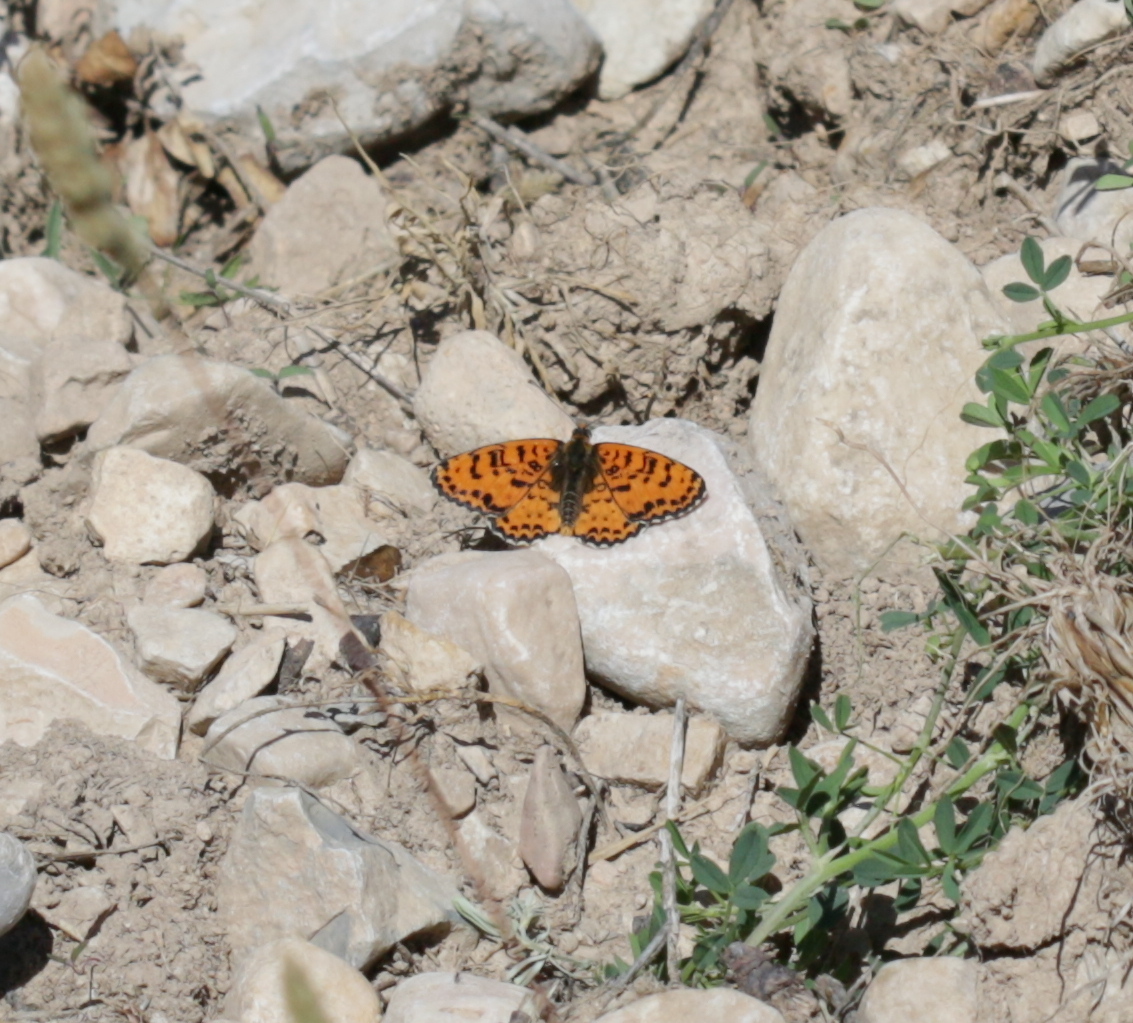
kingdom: Animalia
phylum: Arthropoda
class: Insecta
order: Lepidoptera
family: Nymphalidae
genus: Melitaea
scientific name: Melitaea didyma
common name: Spotted fritillary
